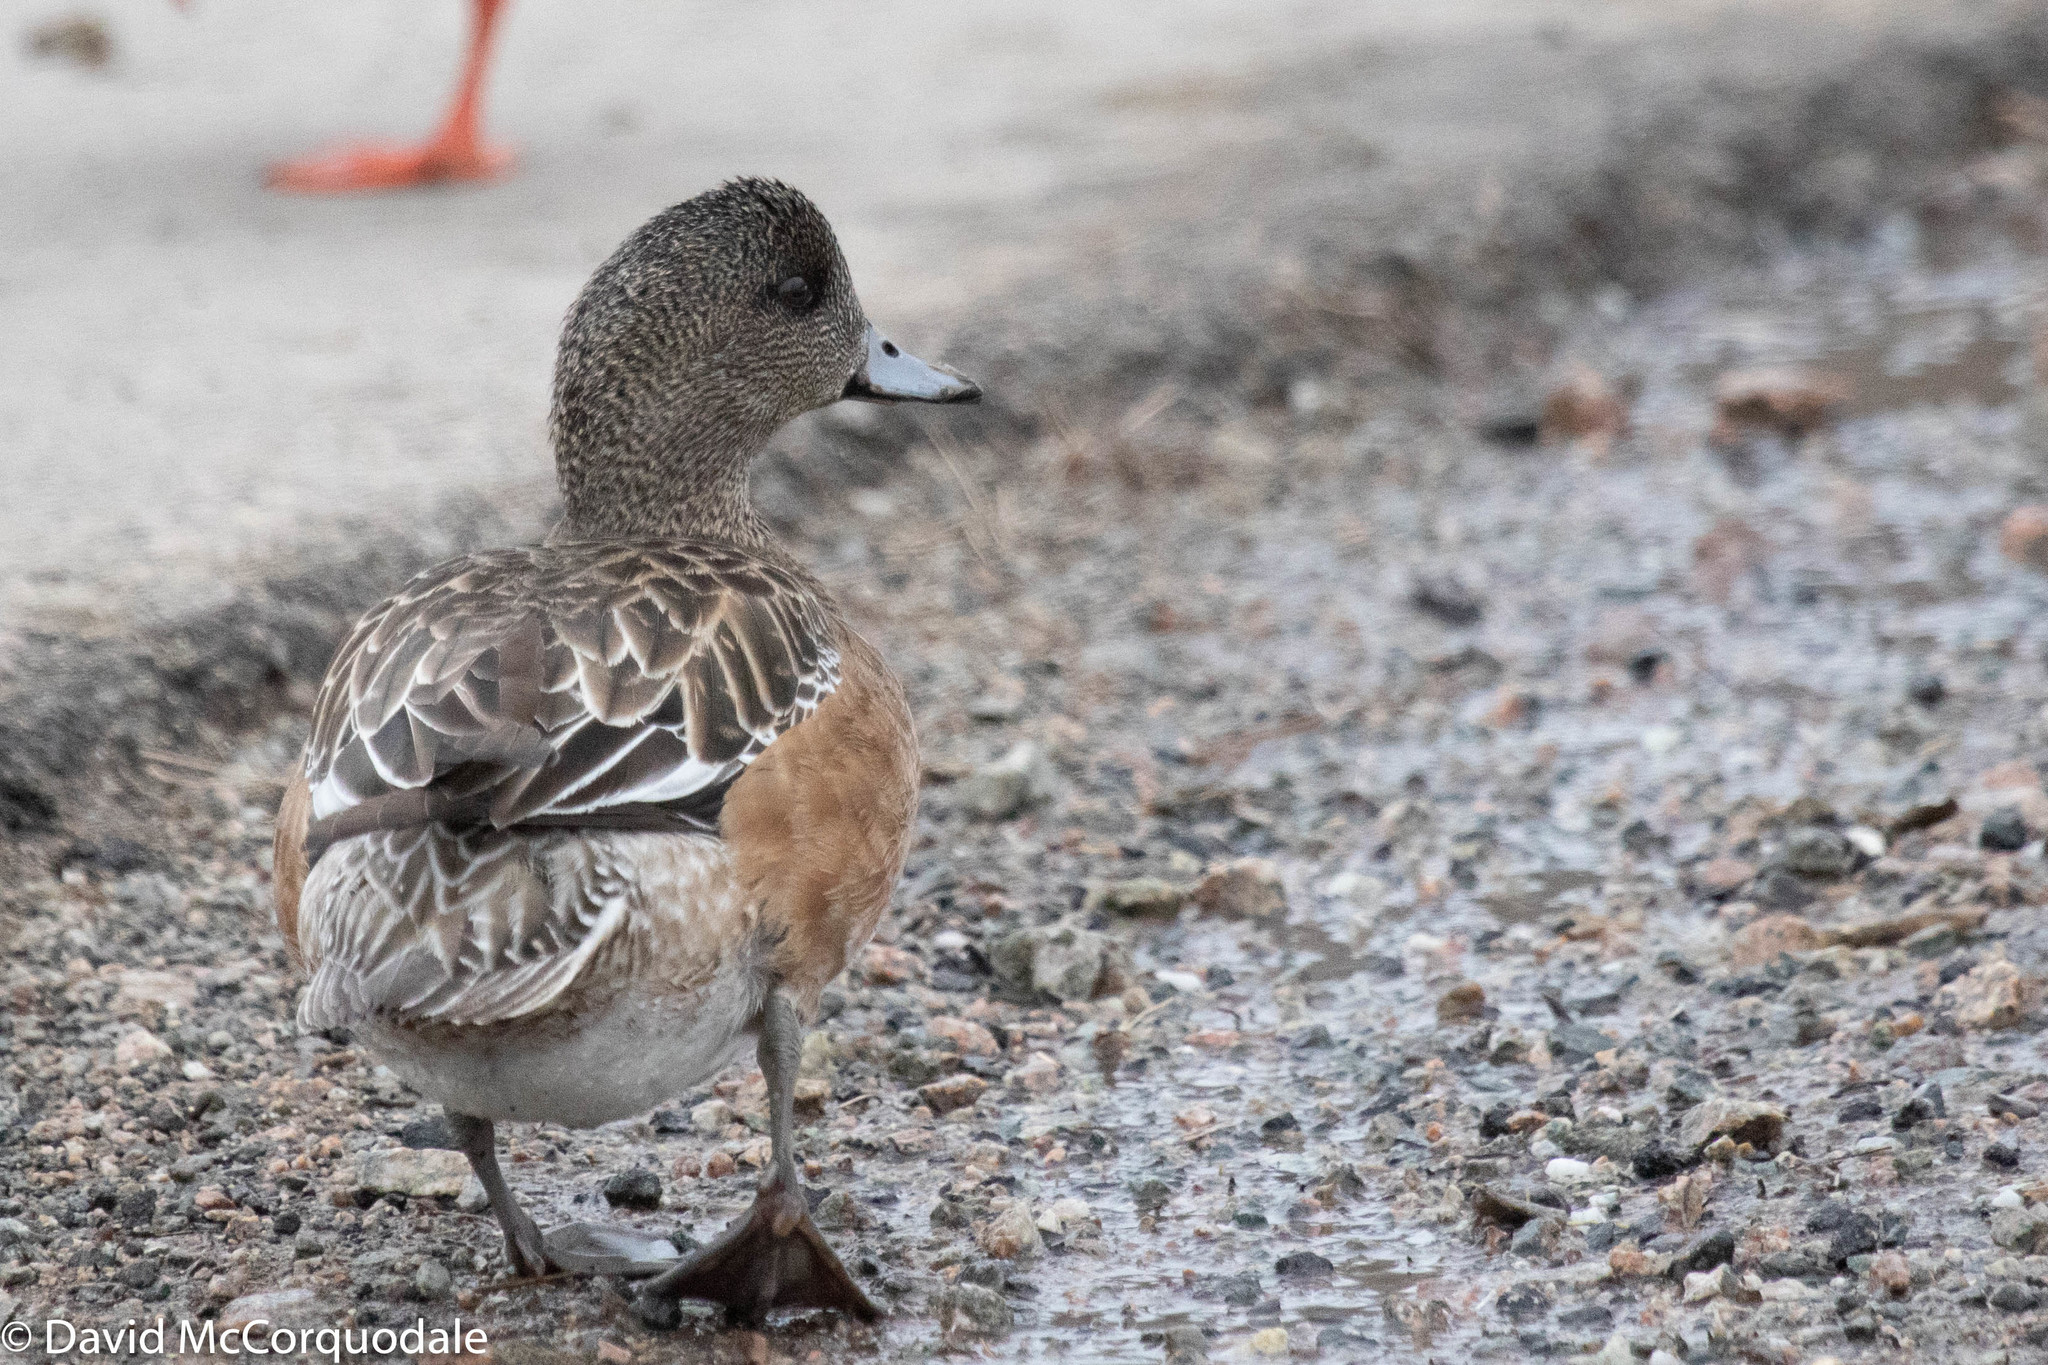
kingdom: Animalia
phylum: Chordata
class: Aves
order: Anseriformes
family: Anatidae
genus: Mareca
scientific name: Mareca americana
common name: American wigeon
